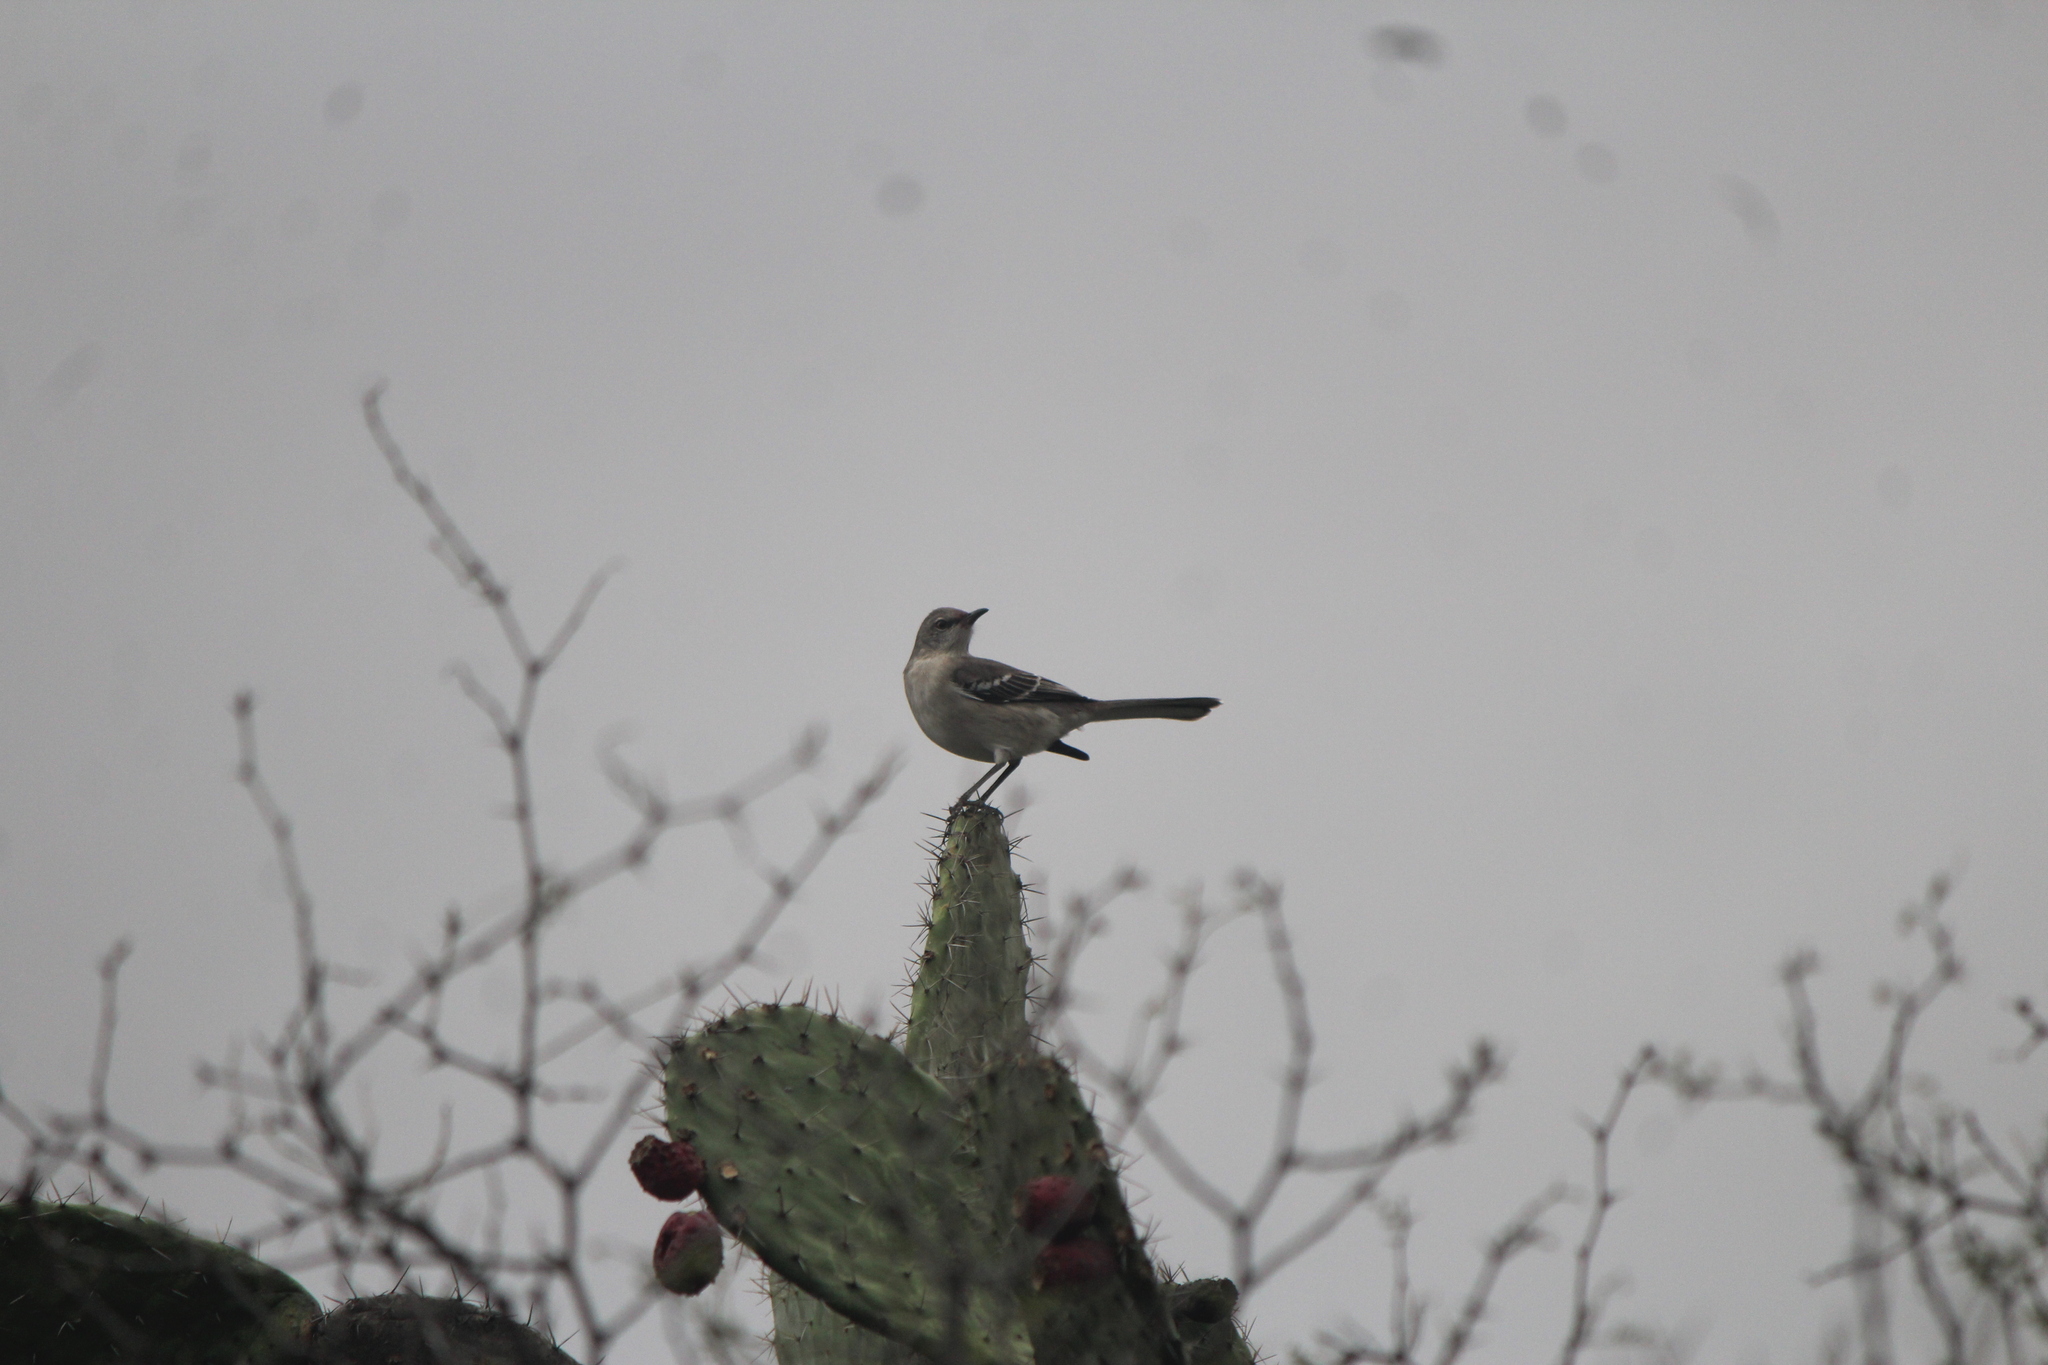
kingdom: Animalia
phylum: Chordata
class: Aves
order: Passeriformes
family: Mimidae
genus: Mimus
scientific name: Mimus polyglottos
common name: Northern mockingbird
